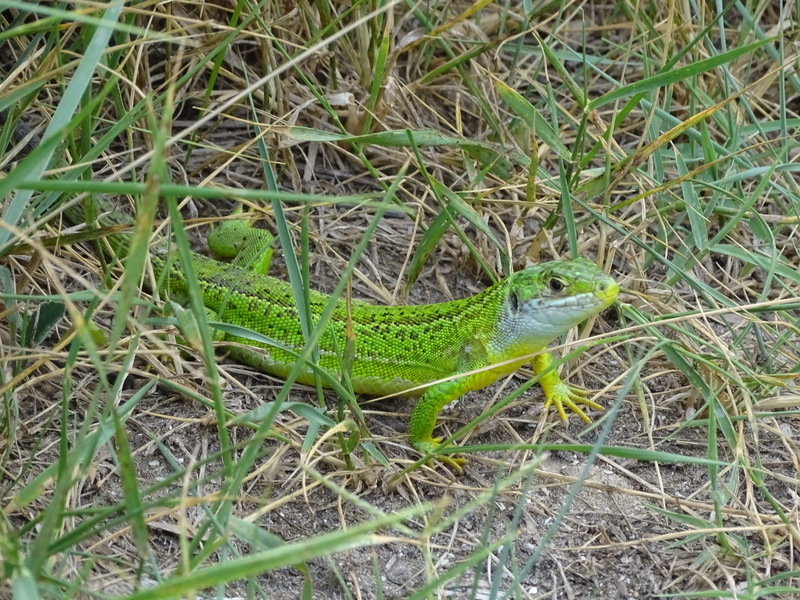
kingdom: Animalia
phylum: Chordata
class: Squamata
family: Lacertidae
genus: Lacerta
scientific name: Lacerta bilineata
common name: Western green lizard
